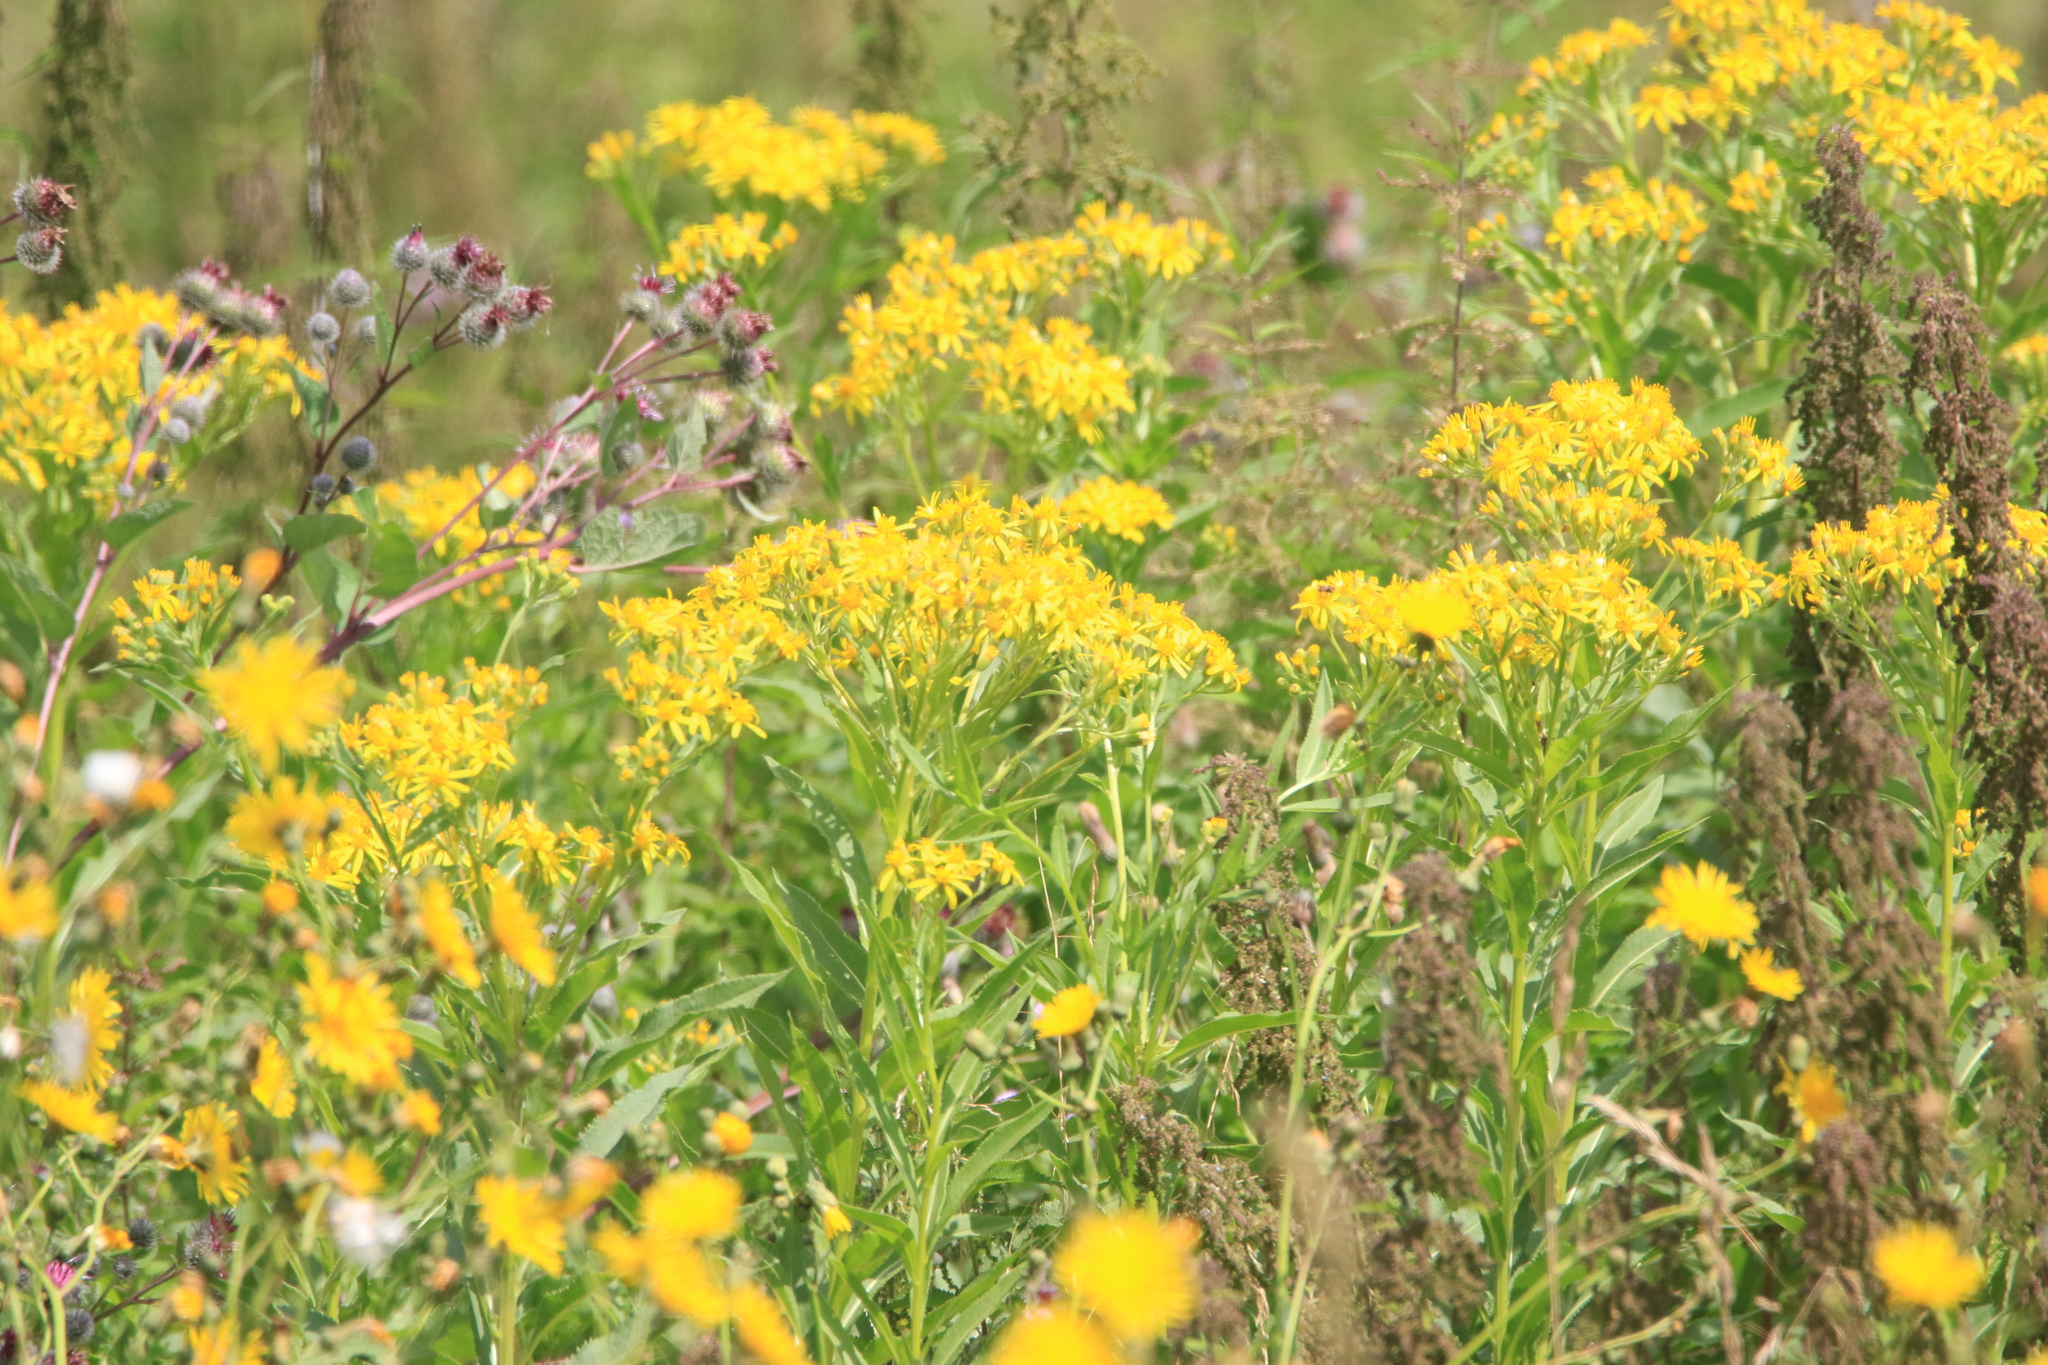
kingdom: Plantae
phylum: Tracheophyta
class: Magnoliopsida
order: Asterales
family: Asteraceae
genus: Senecio
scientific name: Senecio sarracenicus
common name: Broad-leaved ragwort
